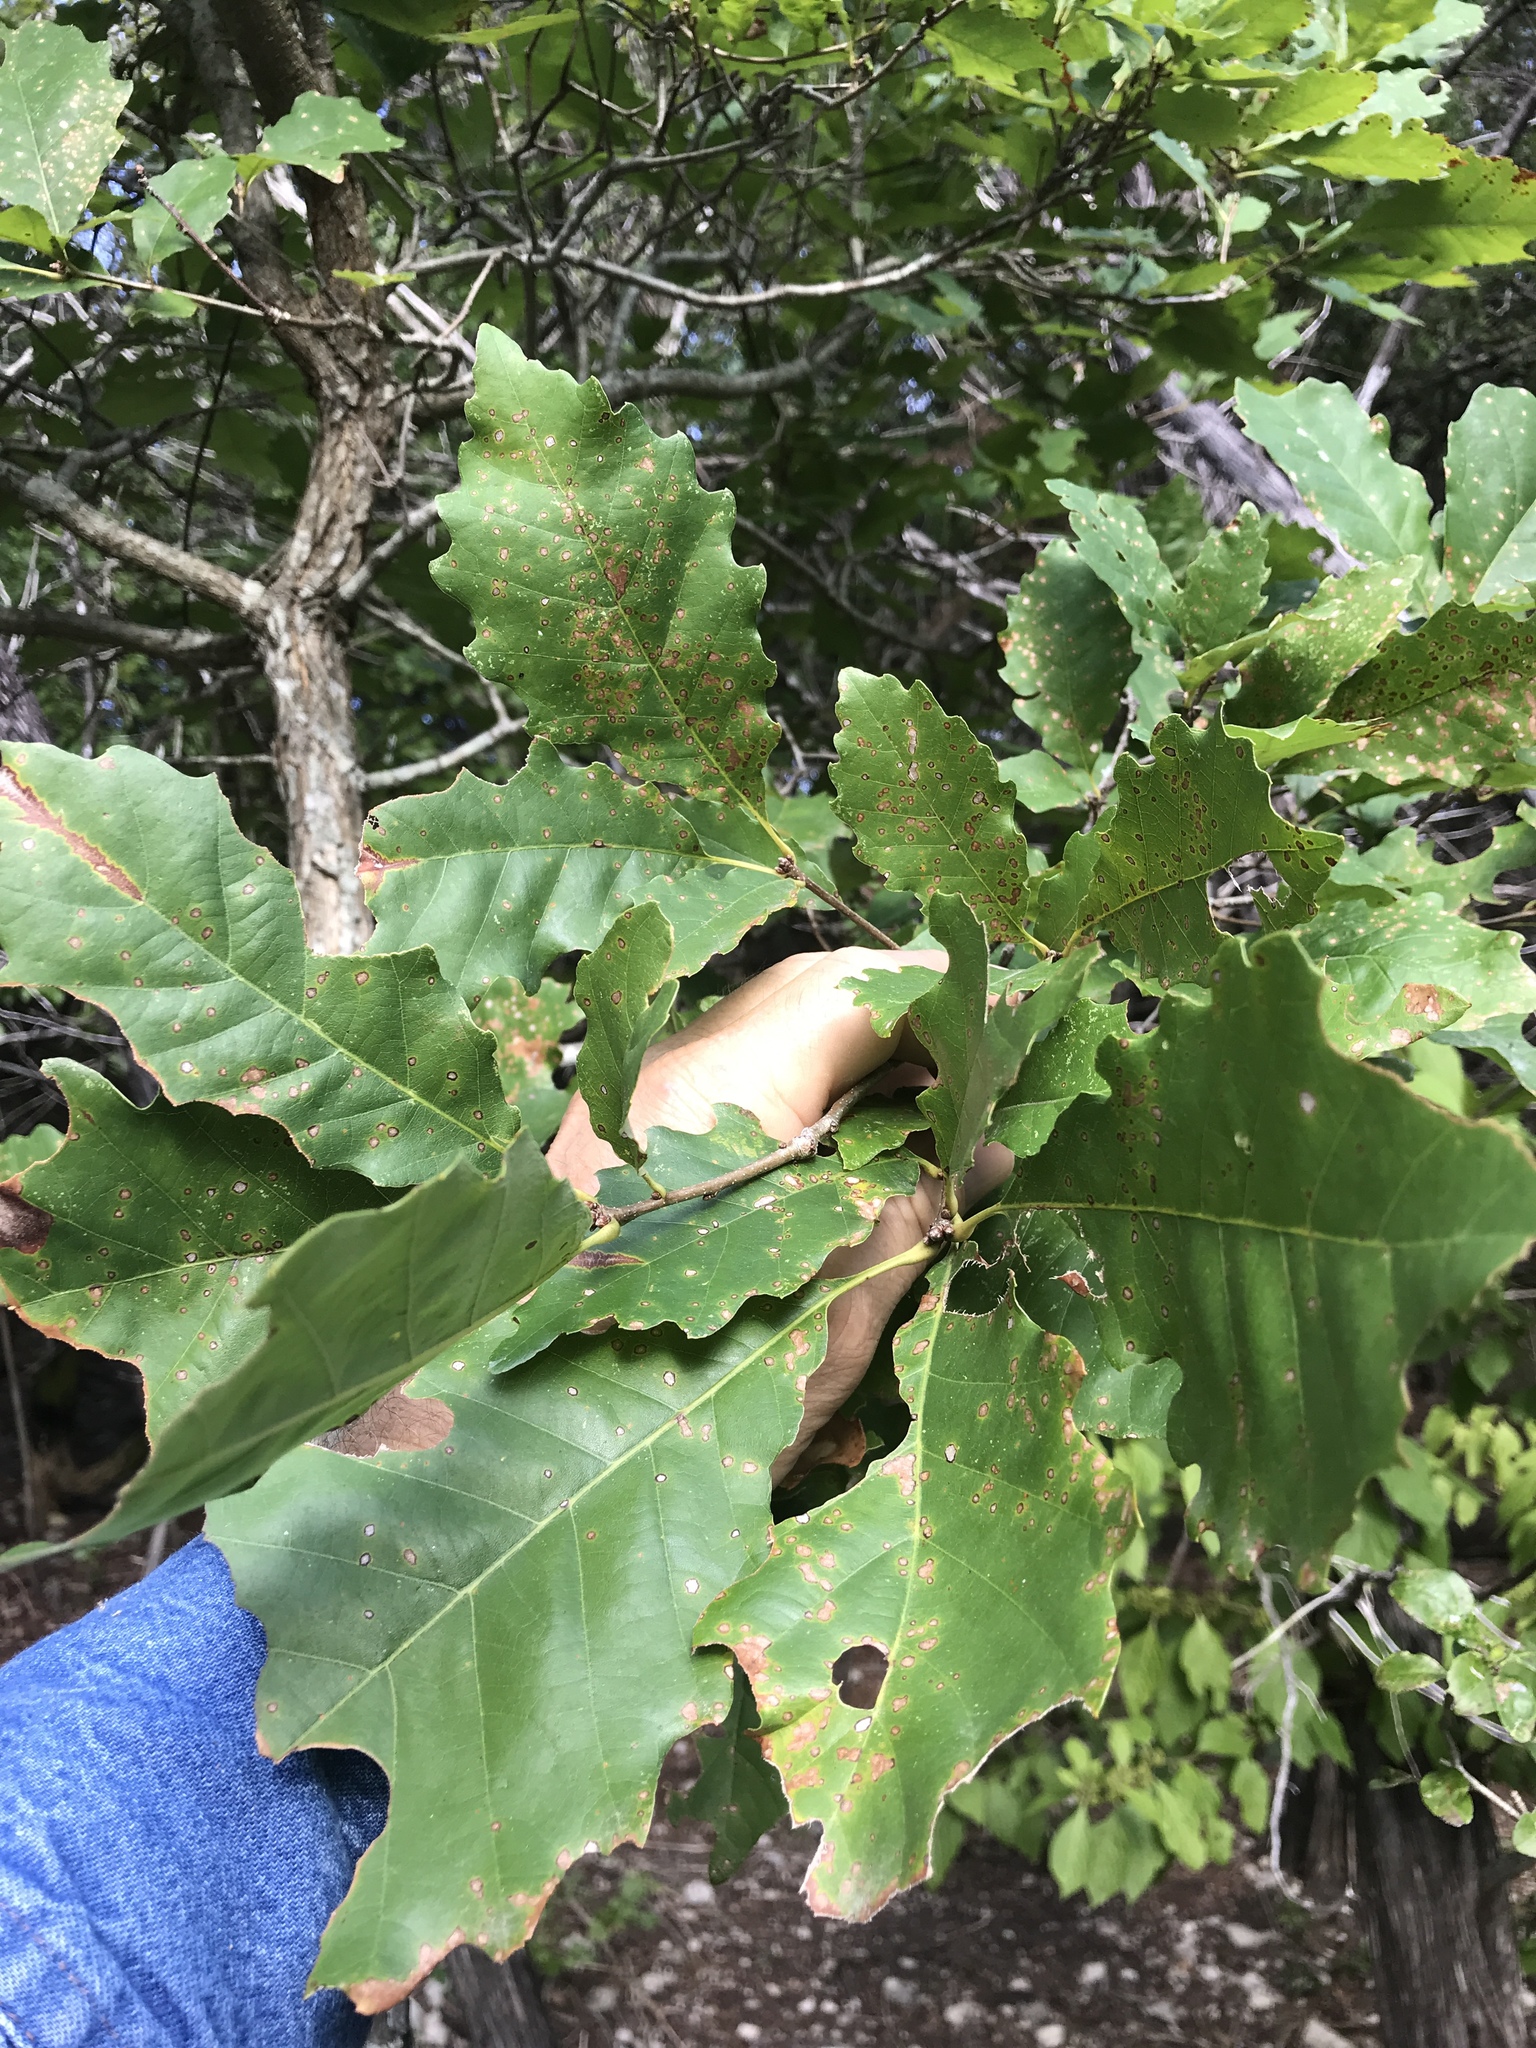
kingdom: Plantae
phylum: Tracheophyta
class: Magnoliopsida
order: Fagales
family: Fagaceae
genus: Quercus
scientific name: Quercus muehlenbergii
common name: Chinkapin oak
